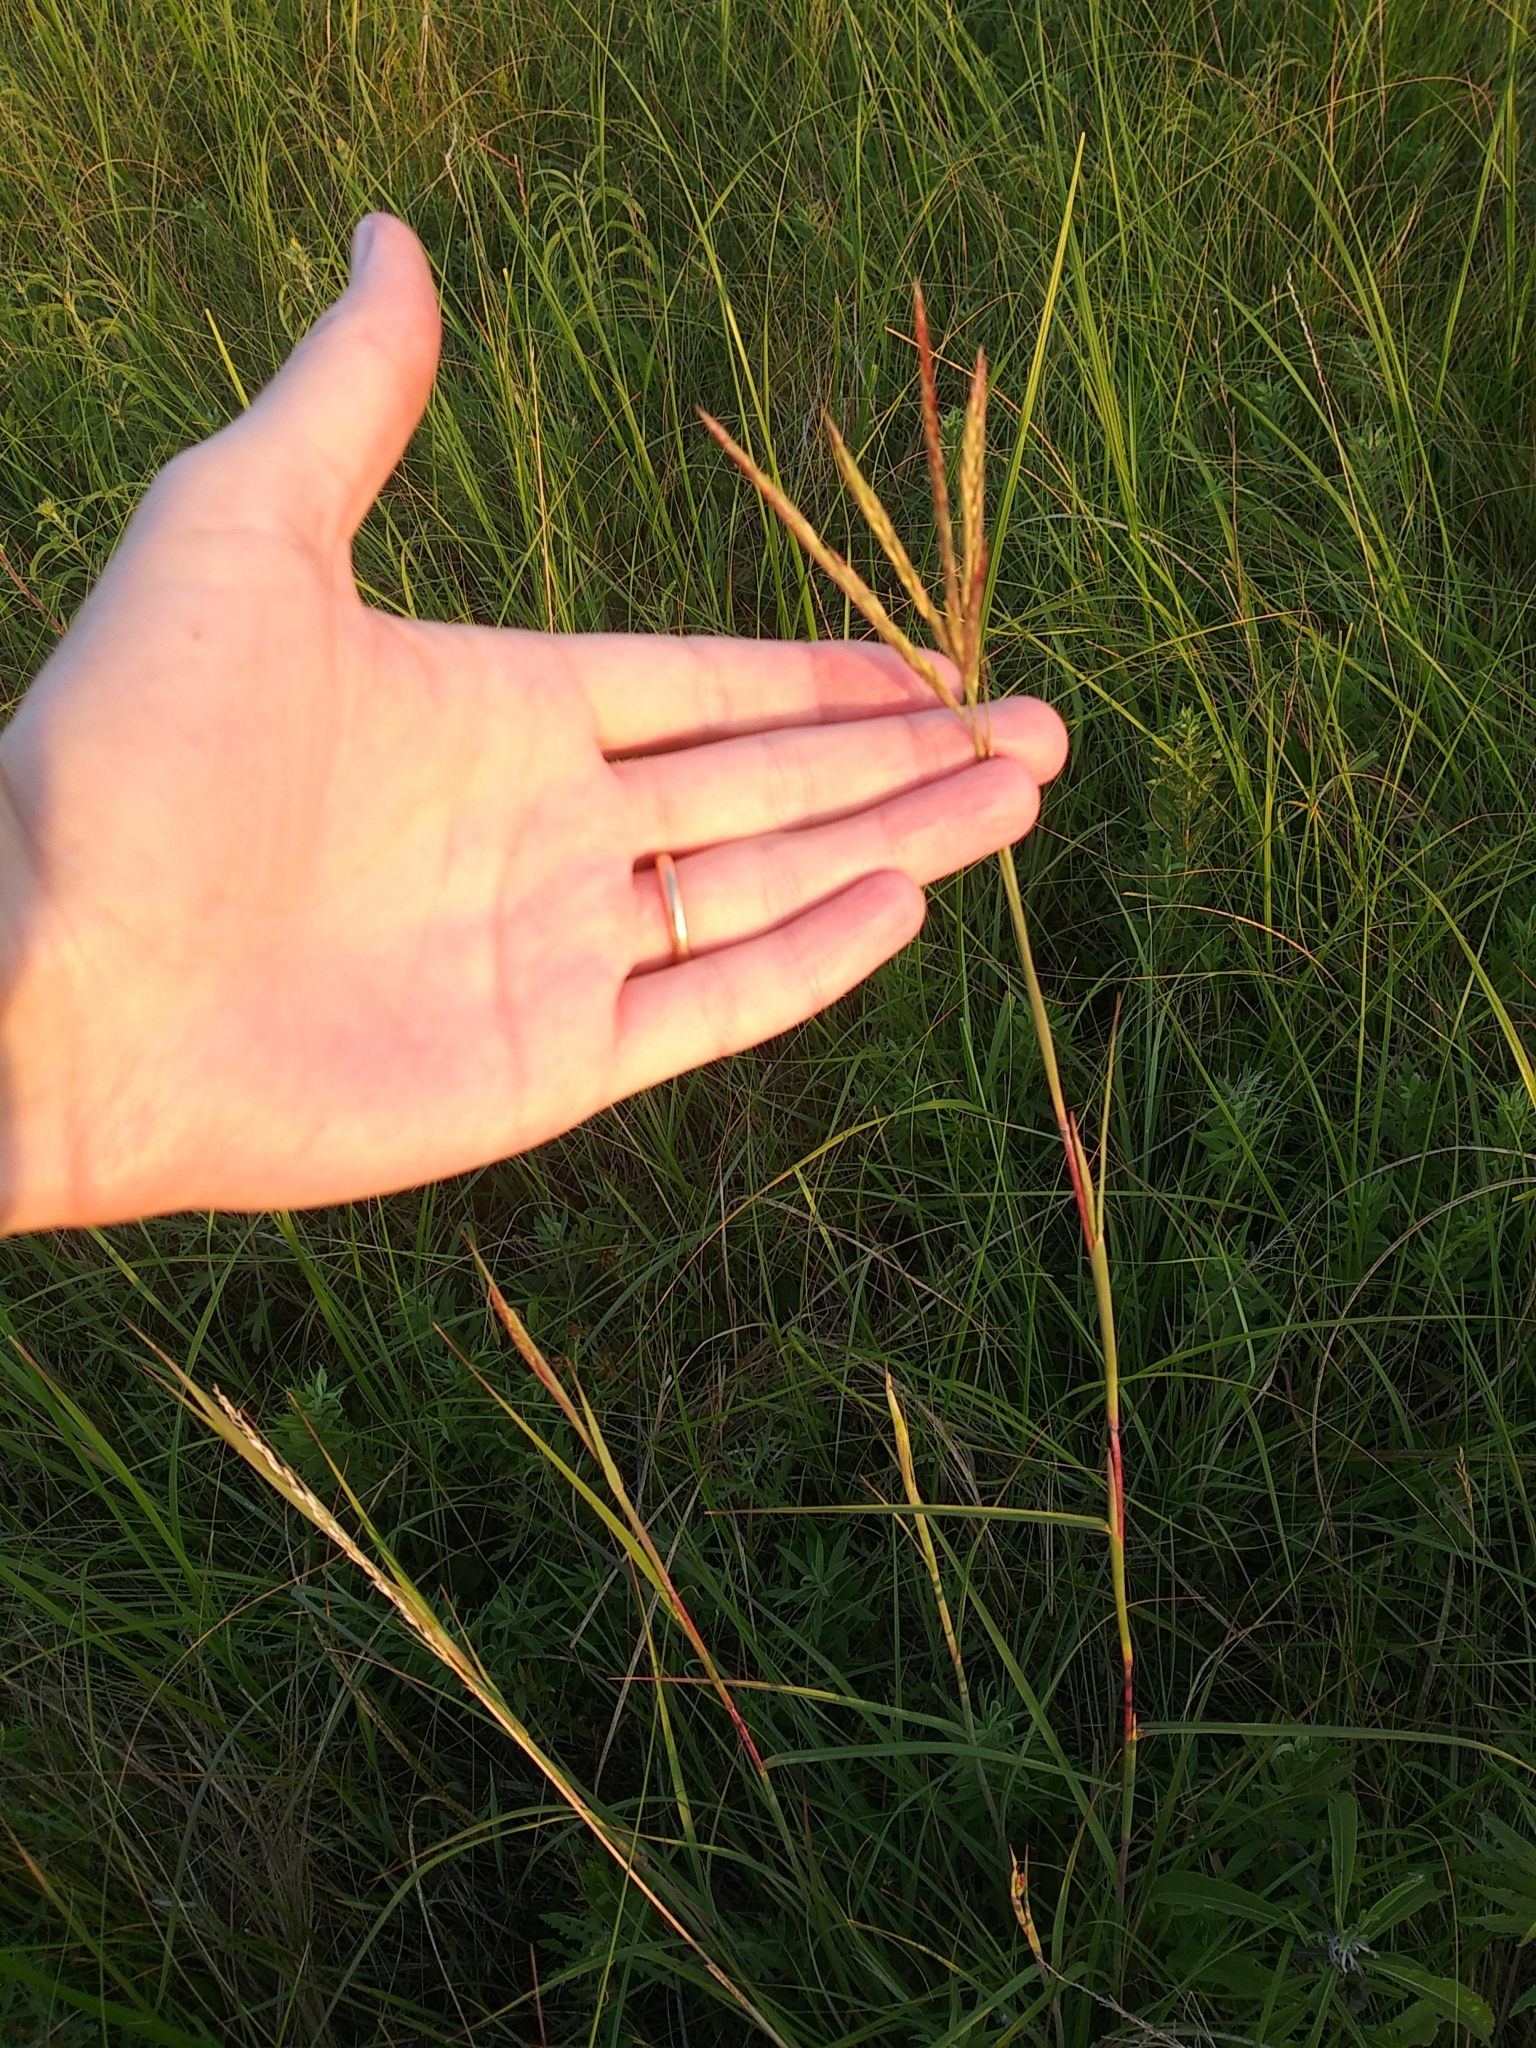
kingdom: Plantae
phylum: Tracheophyta
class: Liliopsida
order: Poales
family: Poaceae
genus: Andropogon
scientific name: Andropogon gerardi
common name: Big bluestem
